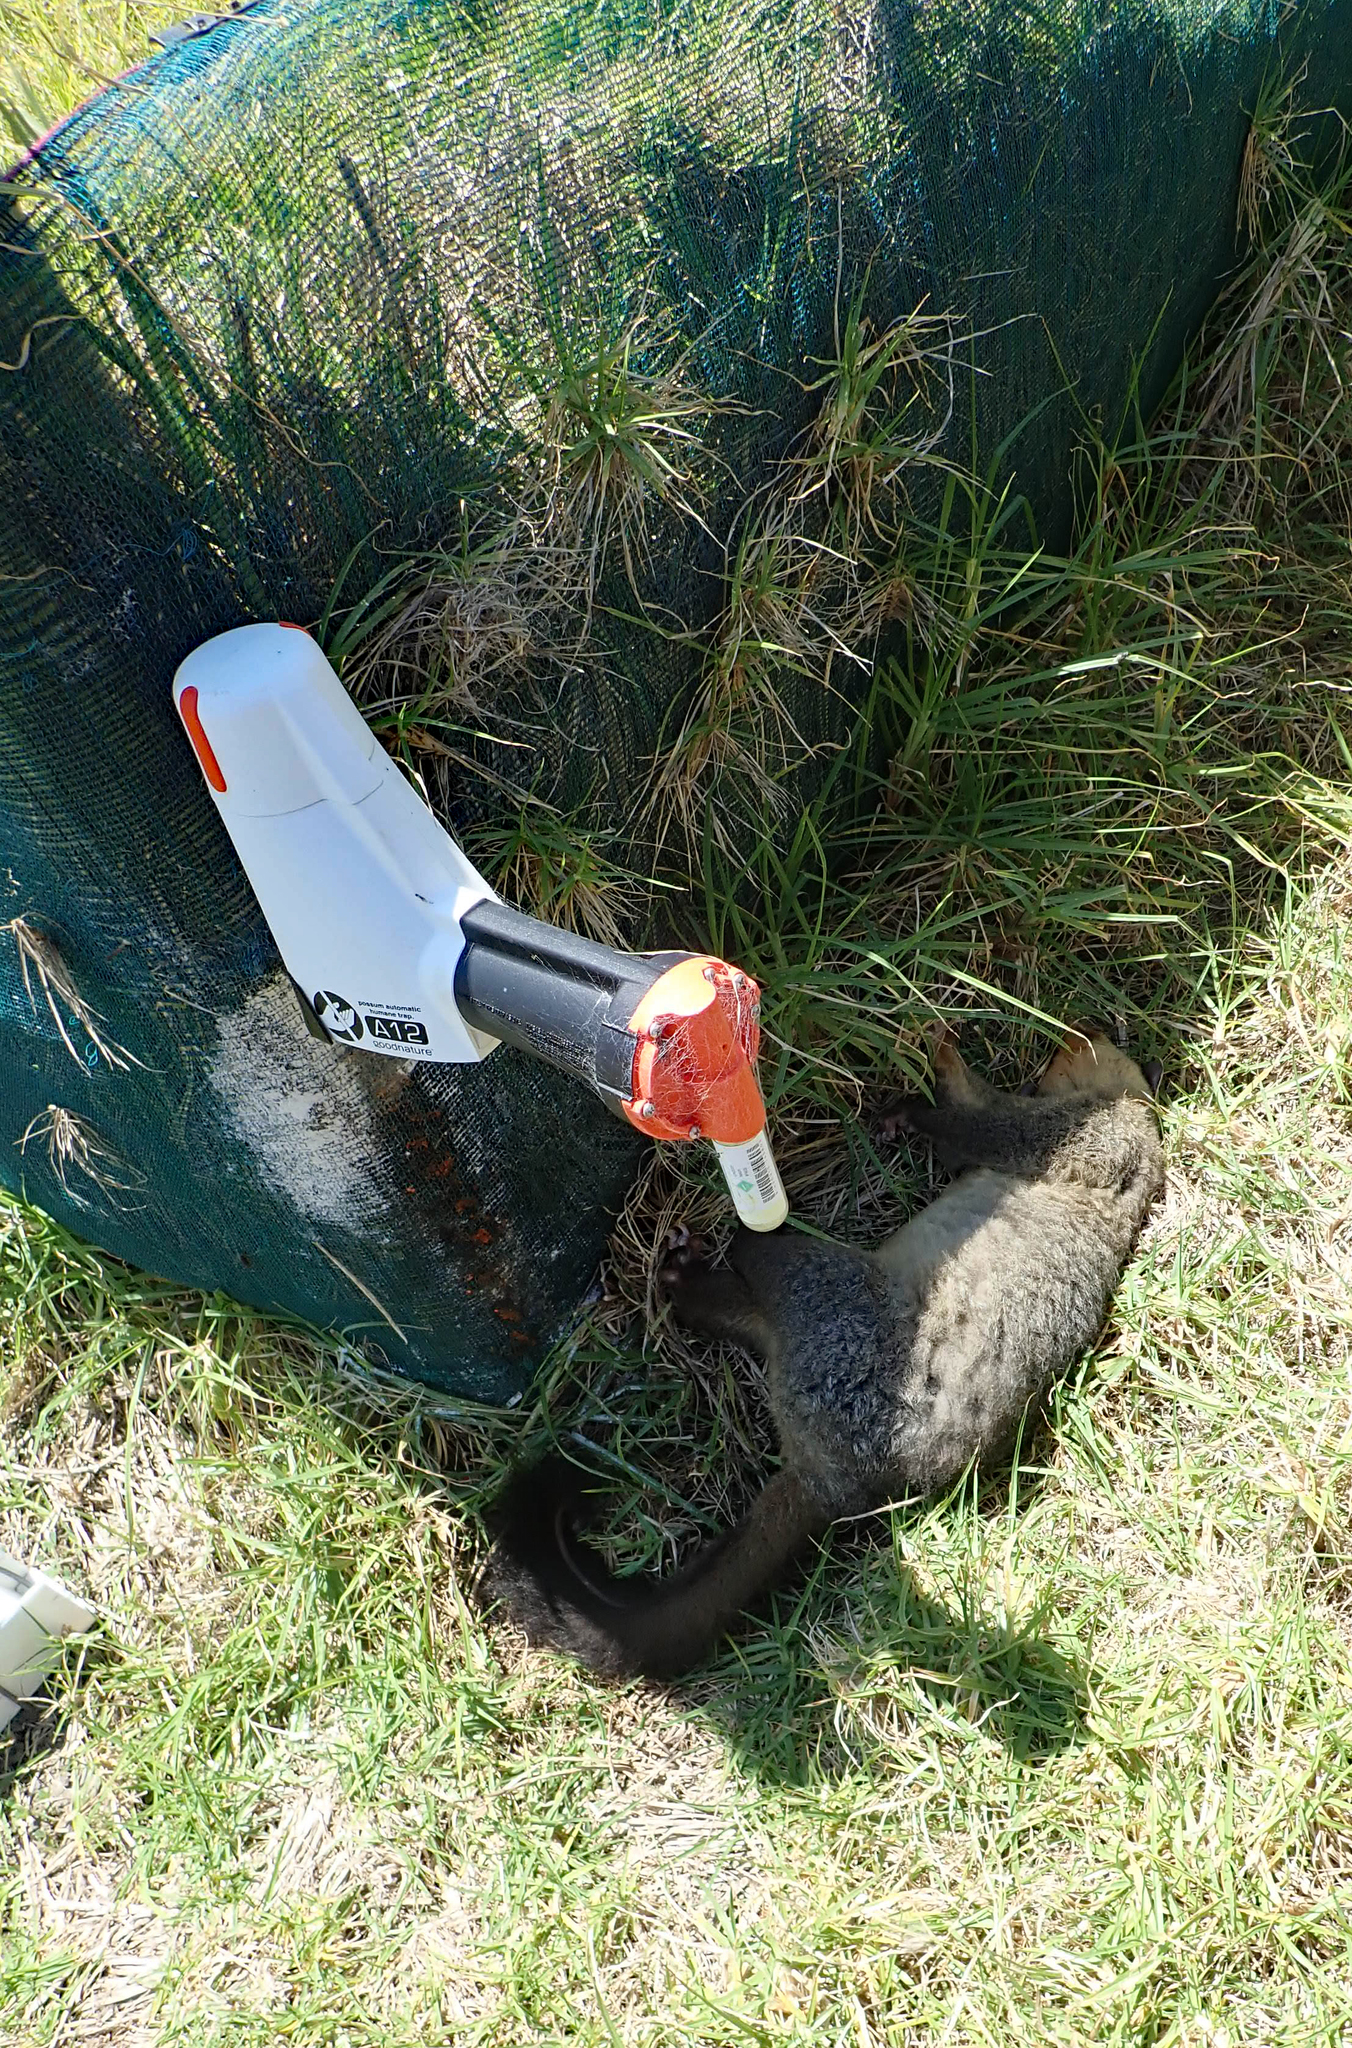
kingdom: Animalia
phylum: Chordata
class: Mammalia
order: Diprotodontia
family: Phalangeridae
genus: Trichosurus
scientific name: Trichosurus vulpecula
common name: Common brushtail
